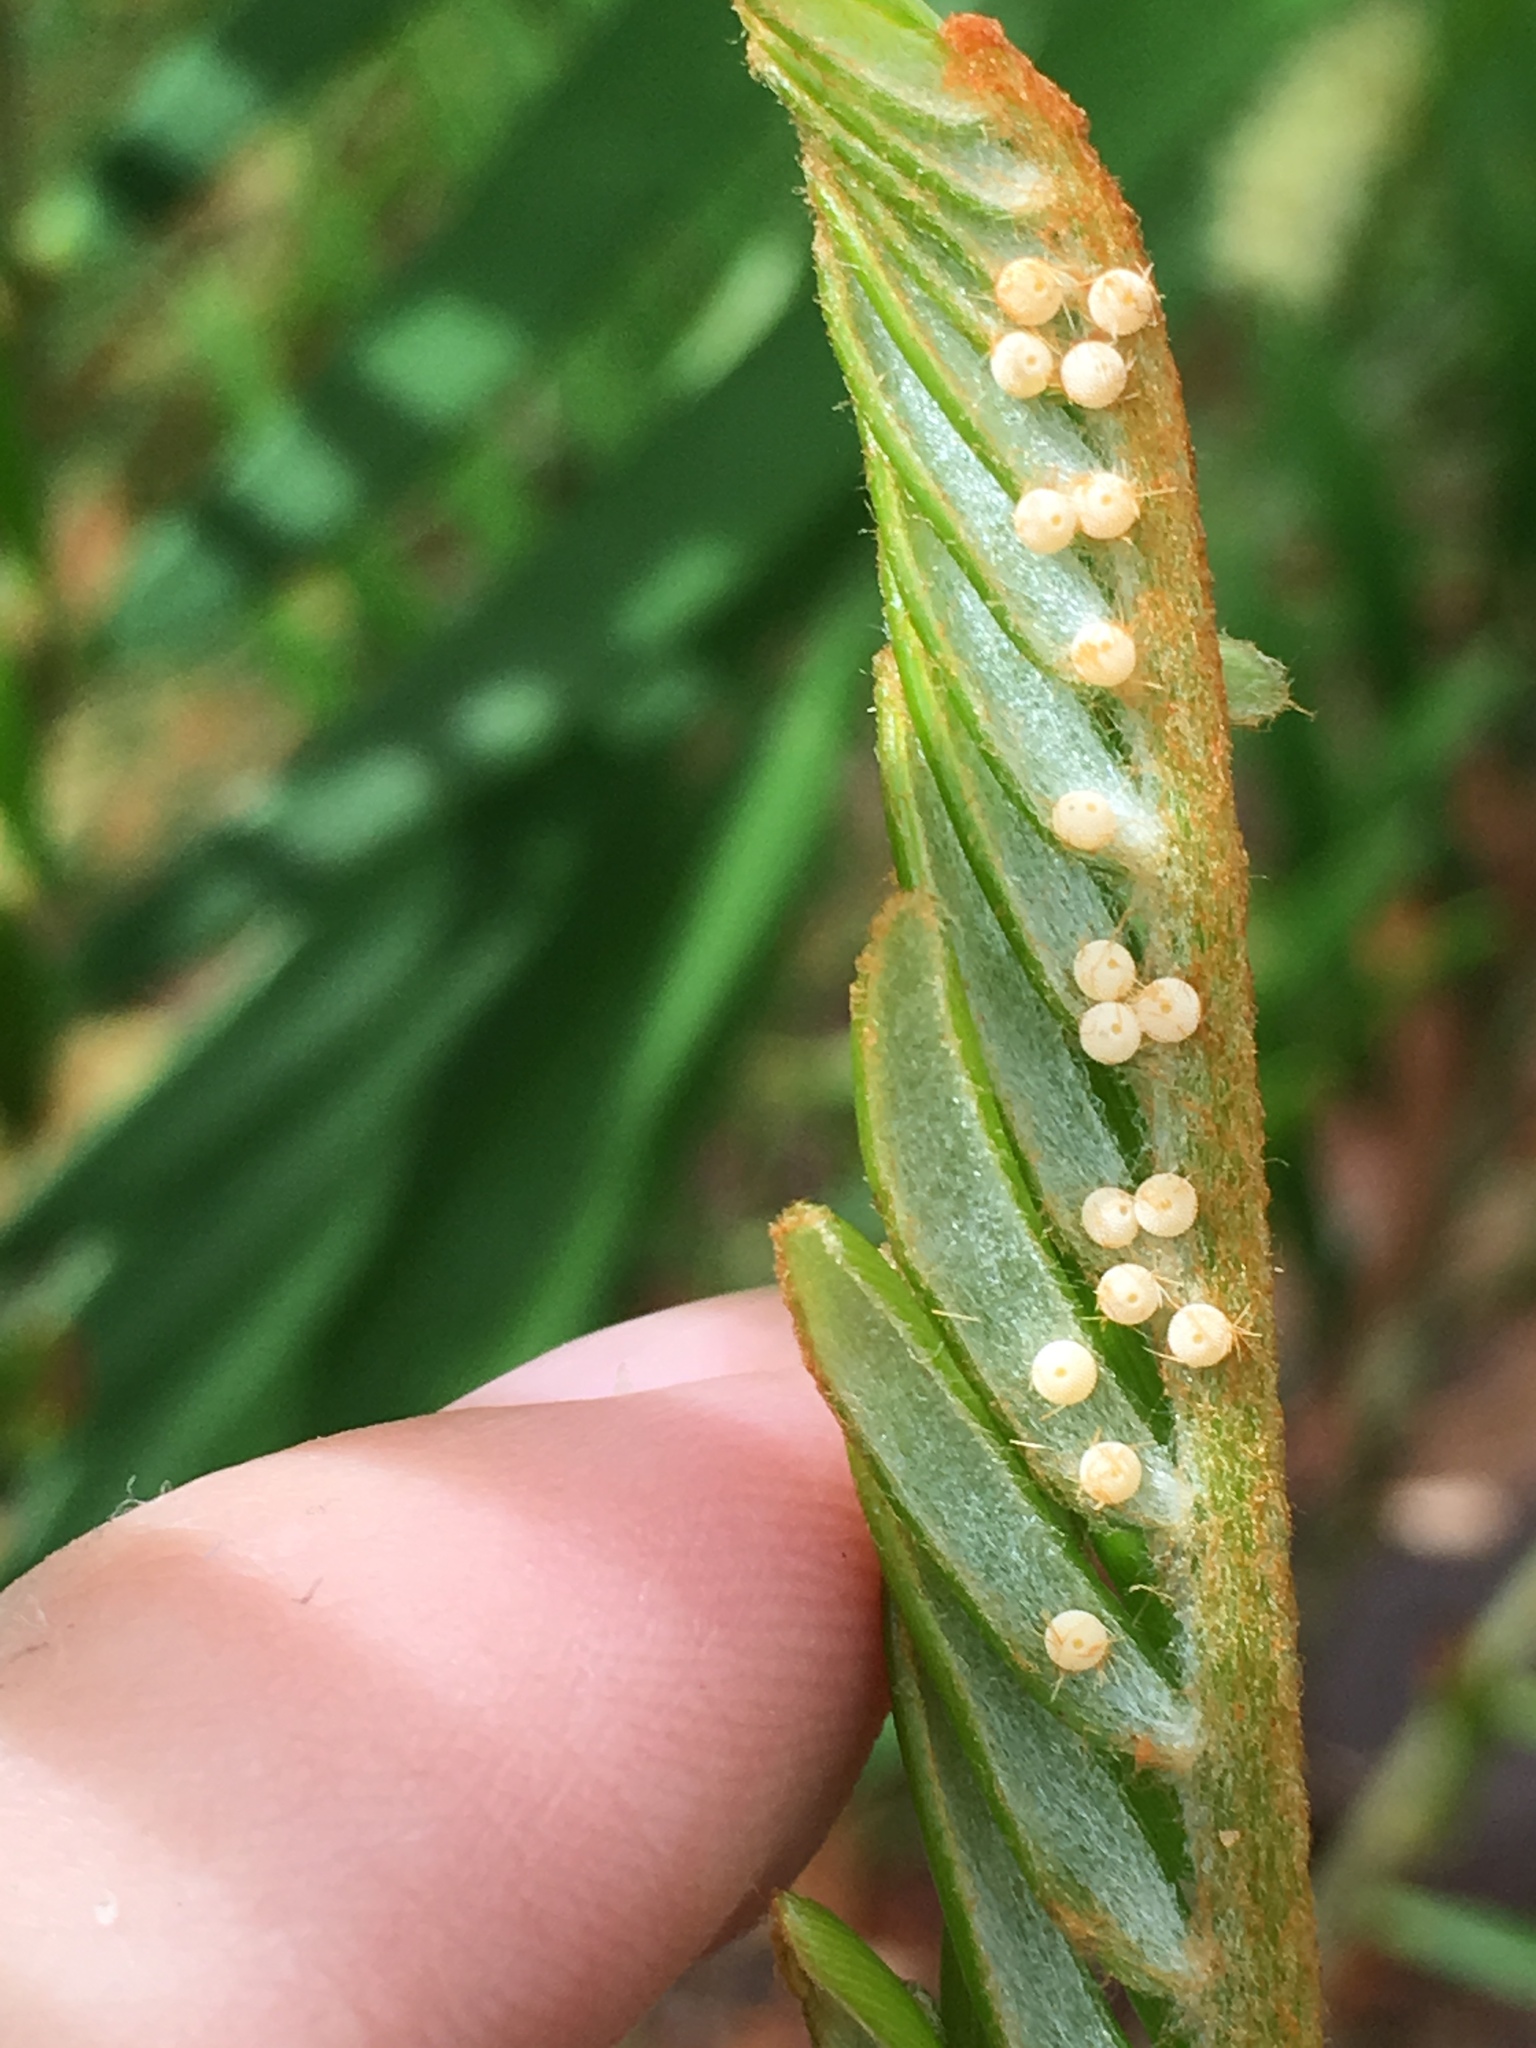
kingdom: Animalia
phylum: Arthropoda
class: Insecta
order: Lepidoptera
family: Lycaenidae
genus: Eumaeus
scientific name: Eumaeus atala
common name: Atala
